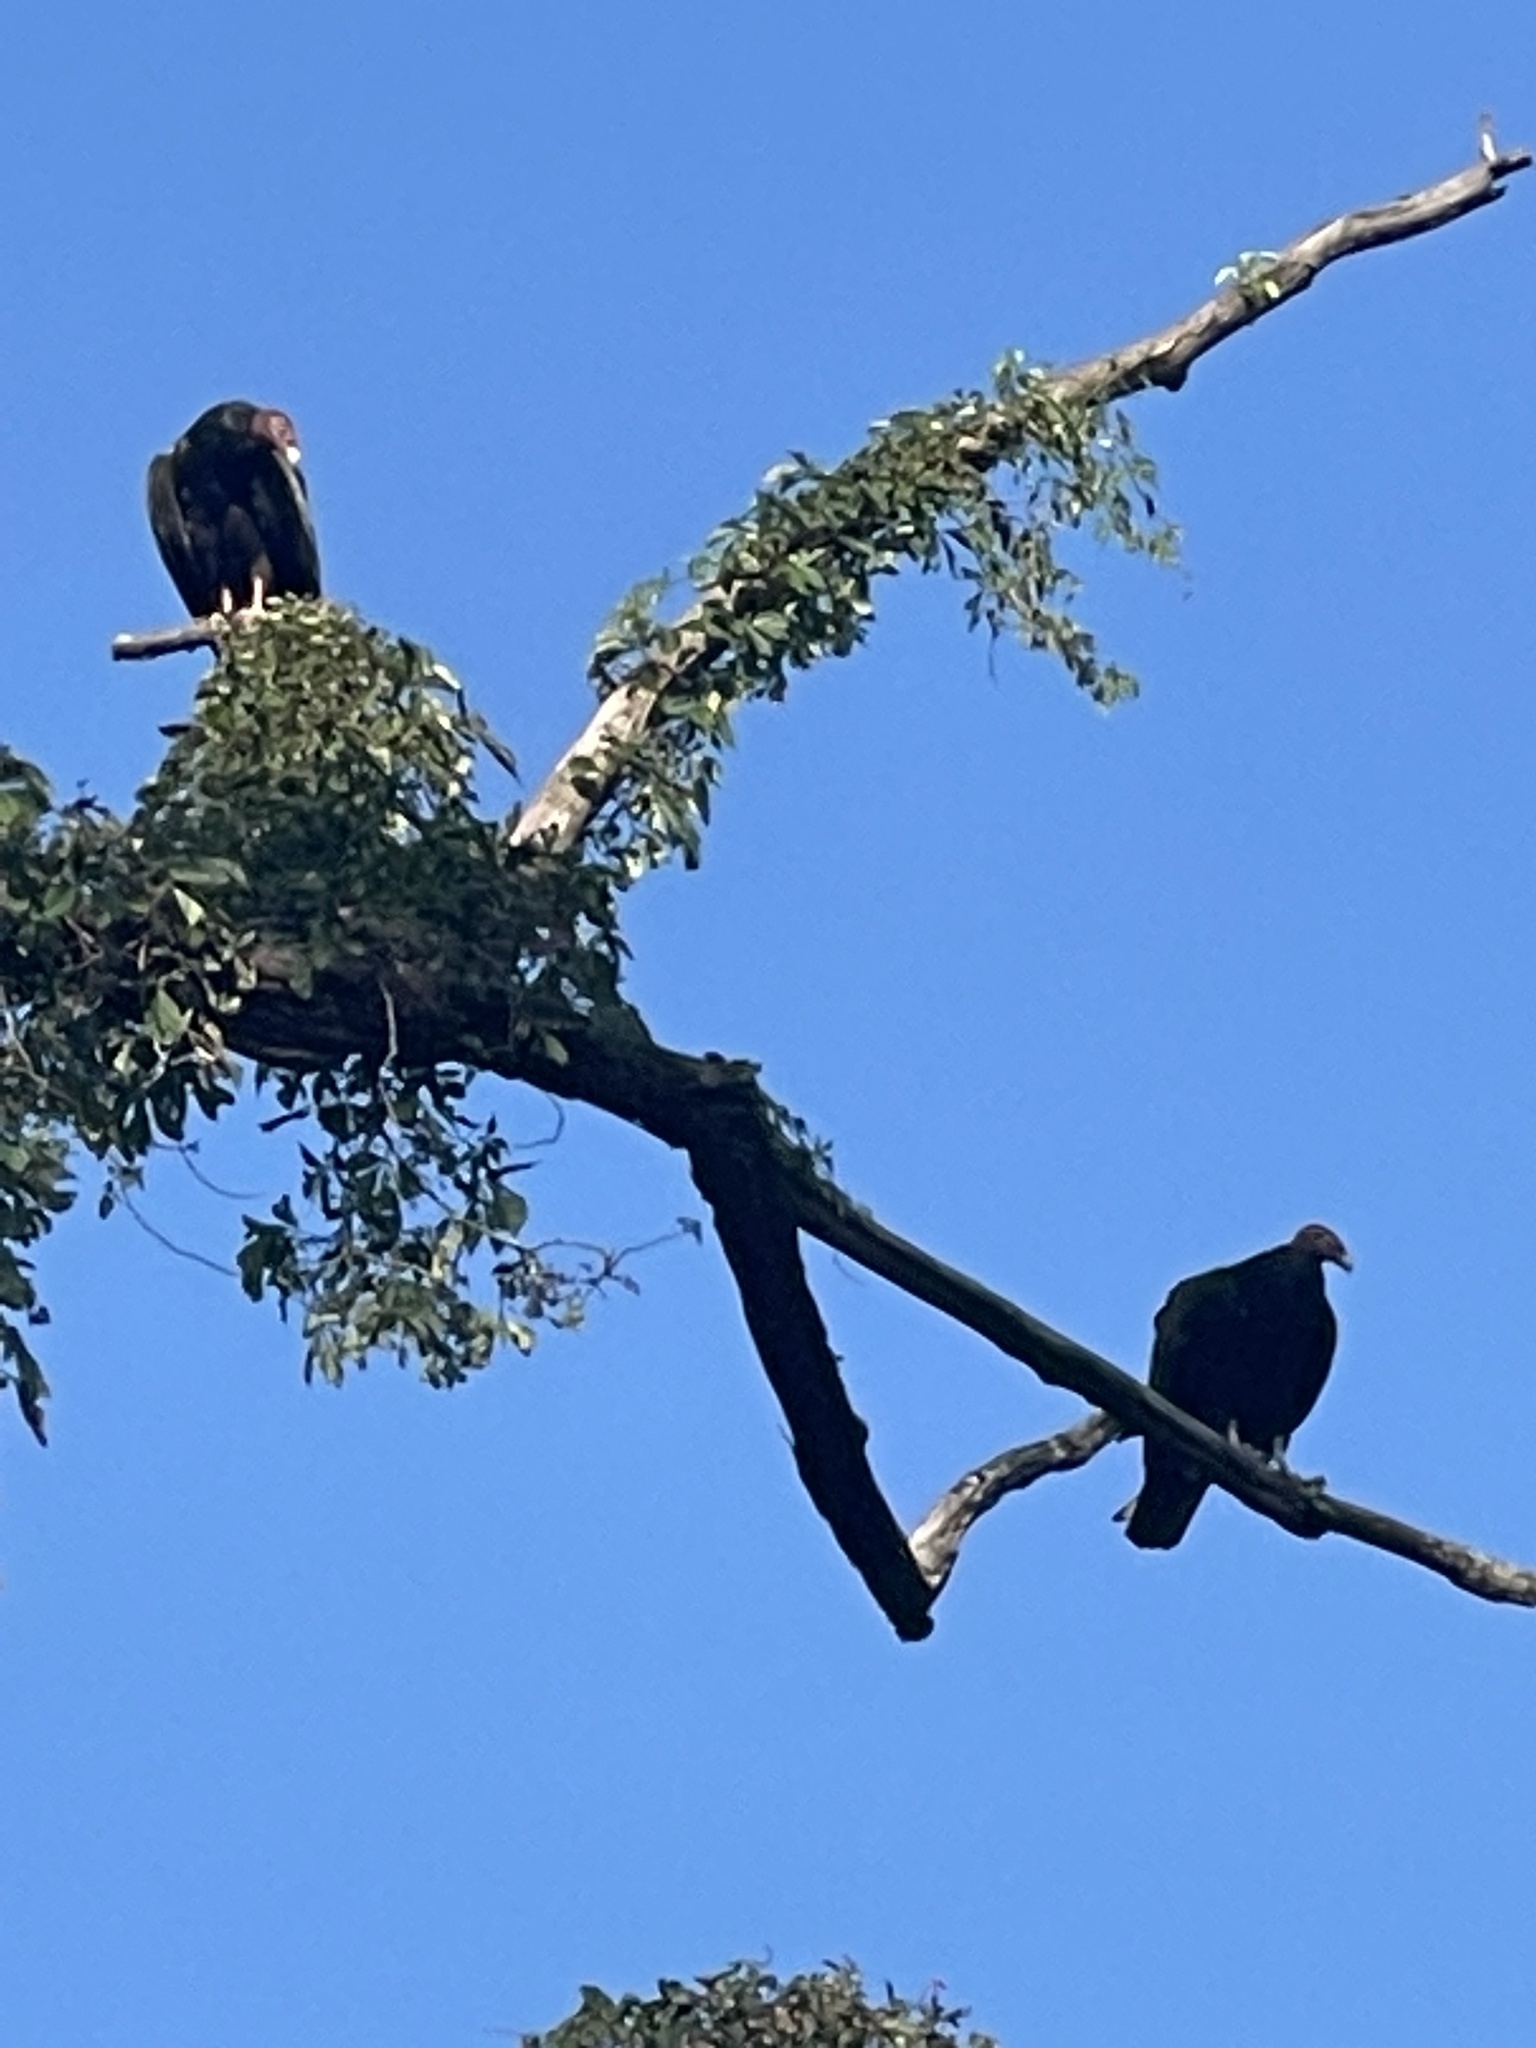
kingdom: Animalia
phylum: Chordata
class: Aves
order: Accipitriformes
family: Cathartidae
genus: Cathartes
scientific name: Cathartes aura
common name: Turkey vulture
